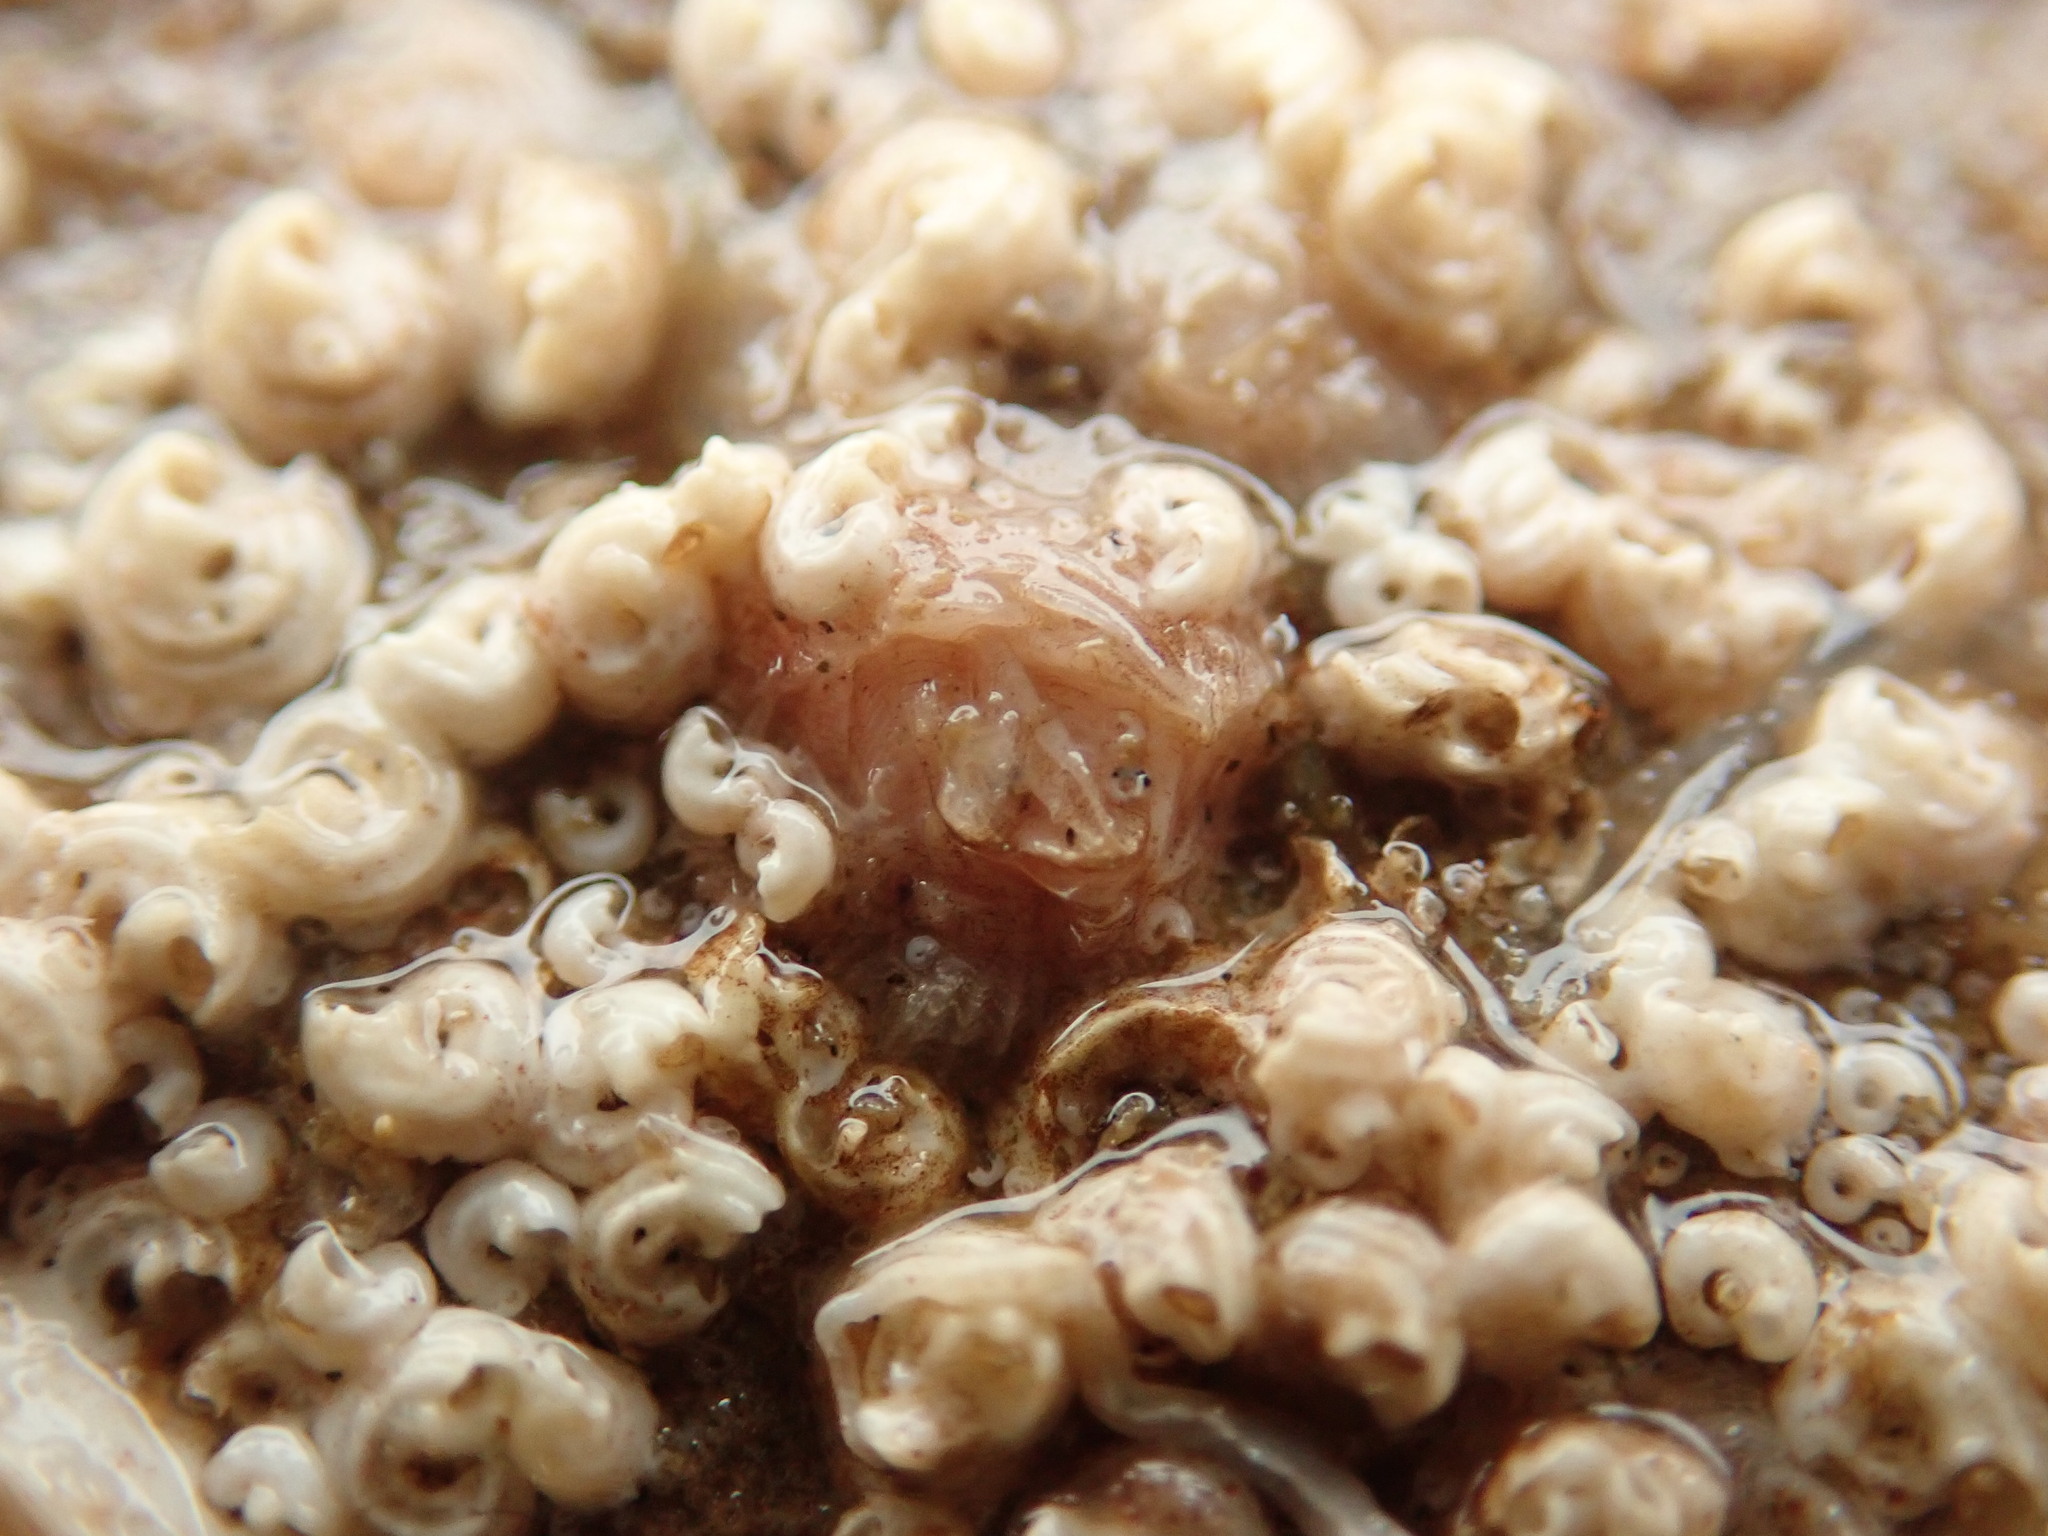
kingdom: Animalia
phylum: Arthropoda
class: Maxillopoda
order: Sessilia
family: Verrucidae
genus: Verruca
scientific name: Verruca stroemia
